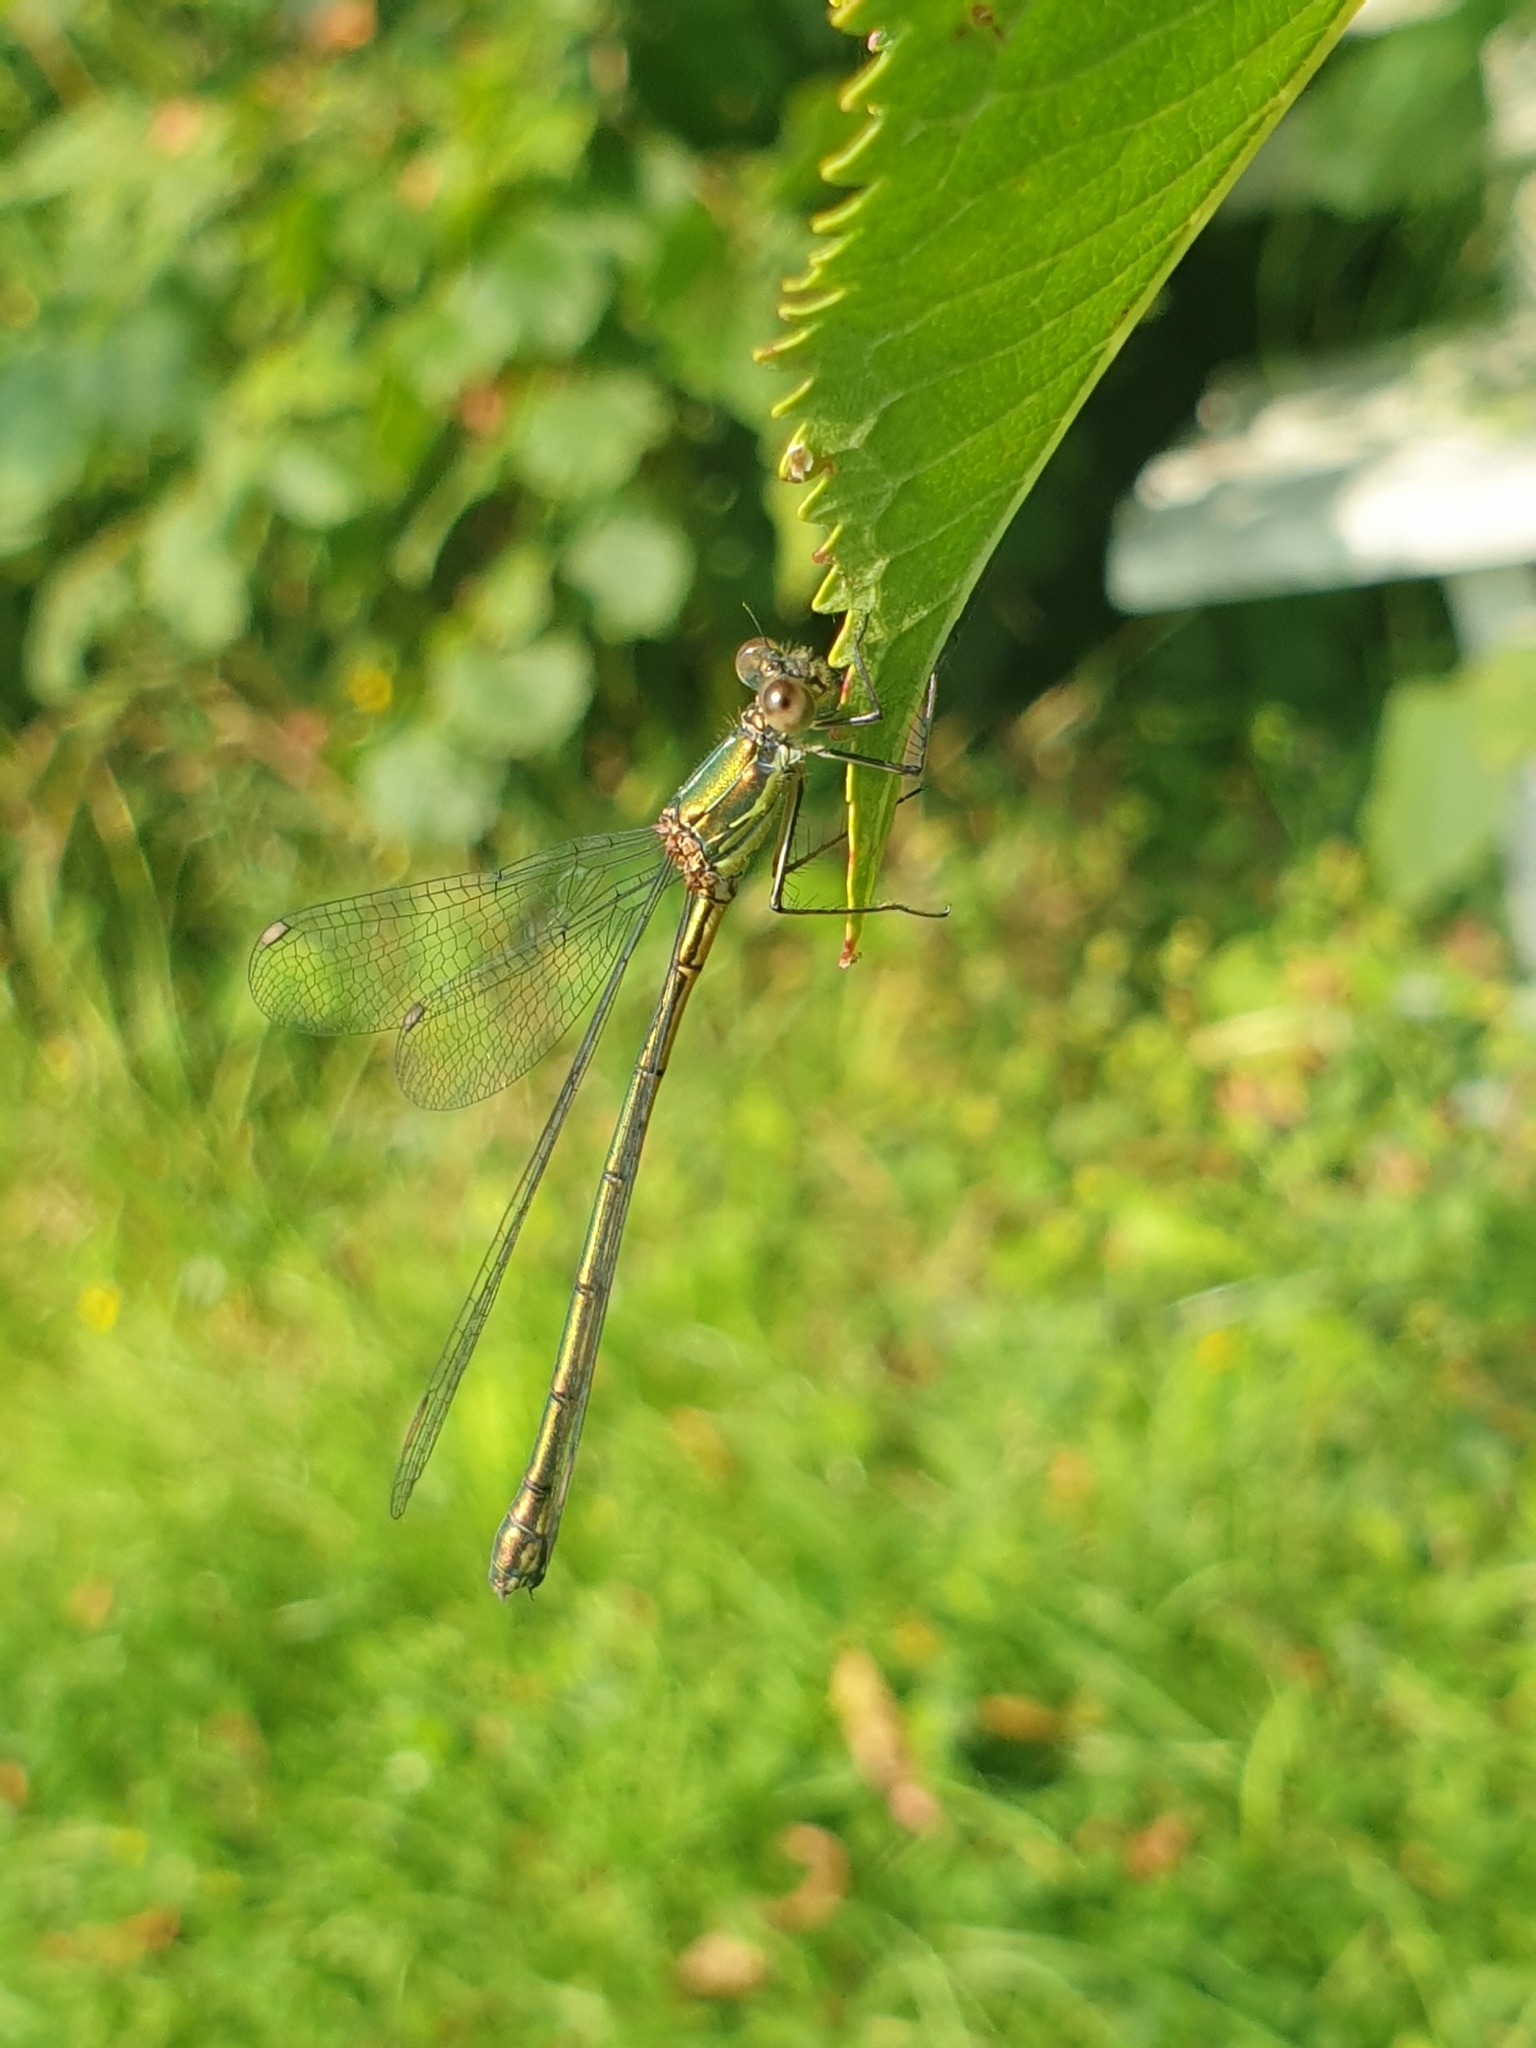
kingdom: Animalia
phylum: Arthropoda
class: Insecta
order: Odonata
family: Lestidae
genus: Chalcolestes
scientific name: Chalcolestes viridis
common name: Green emerald damselfly
